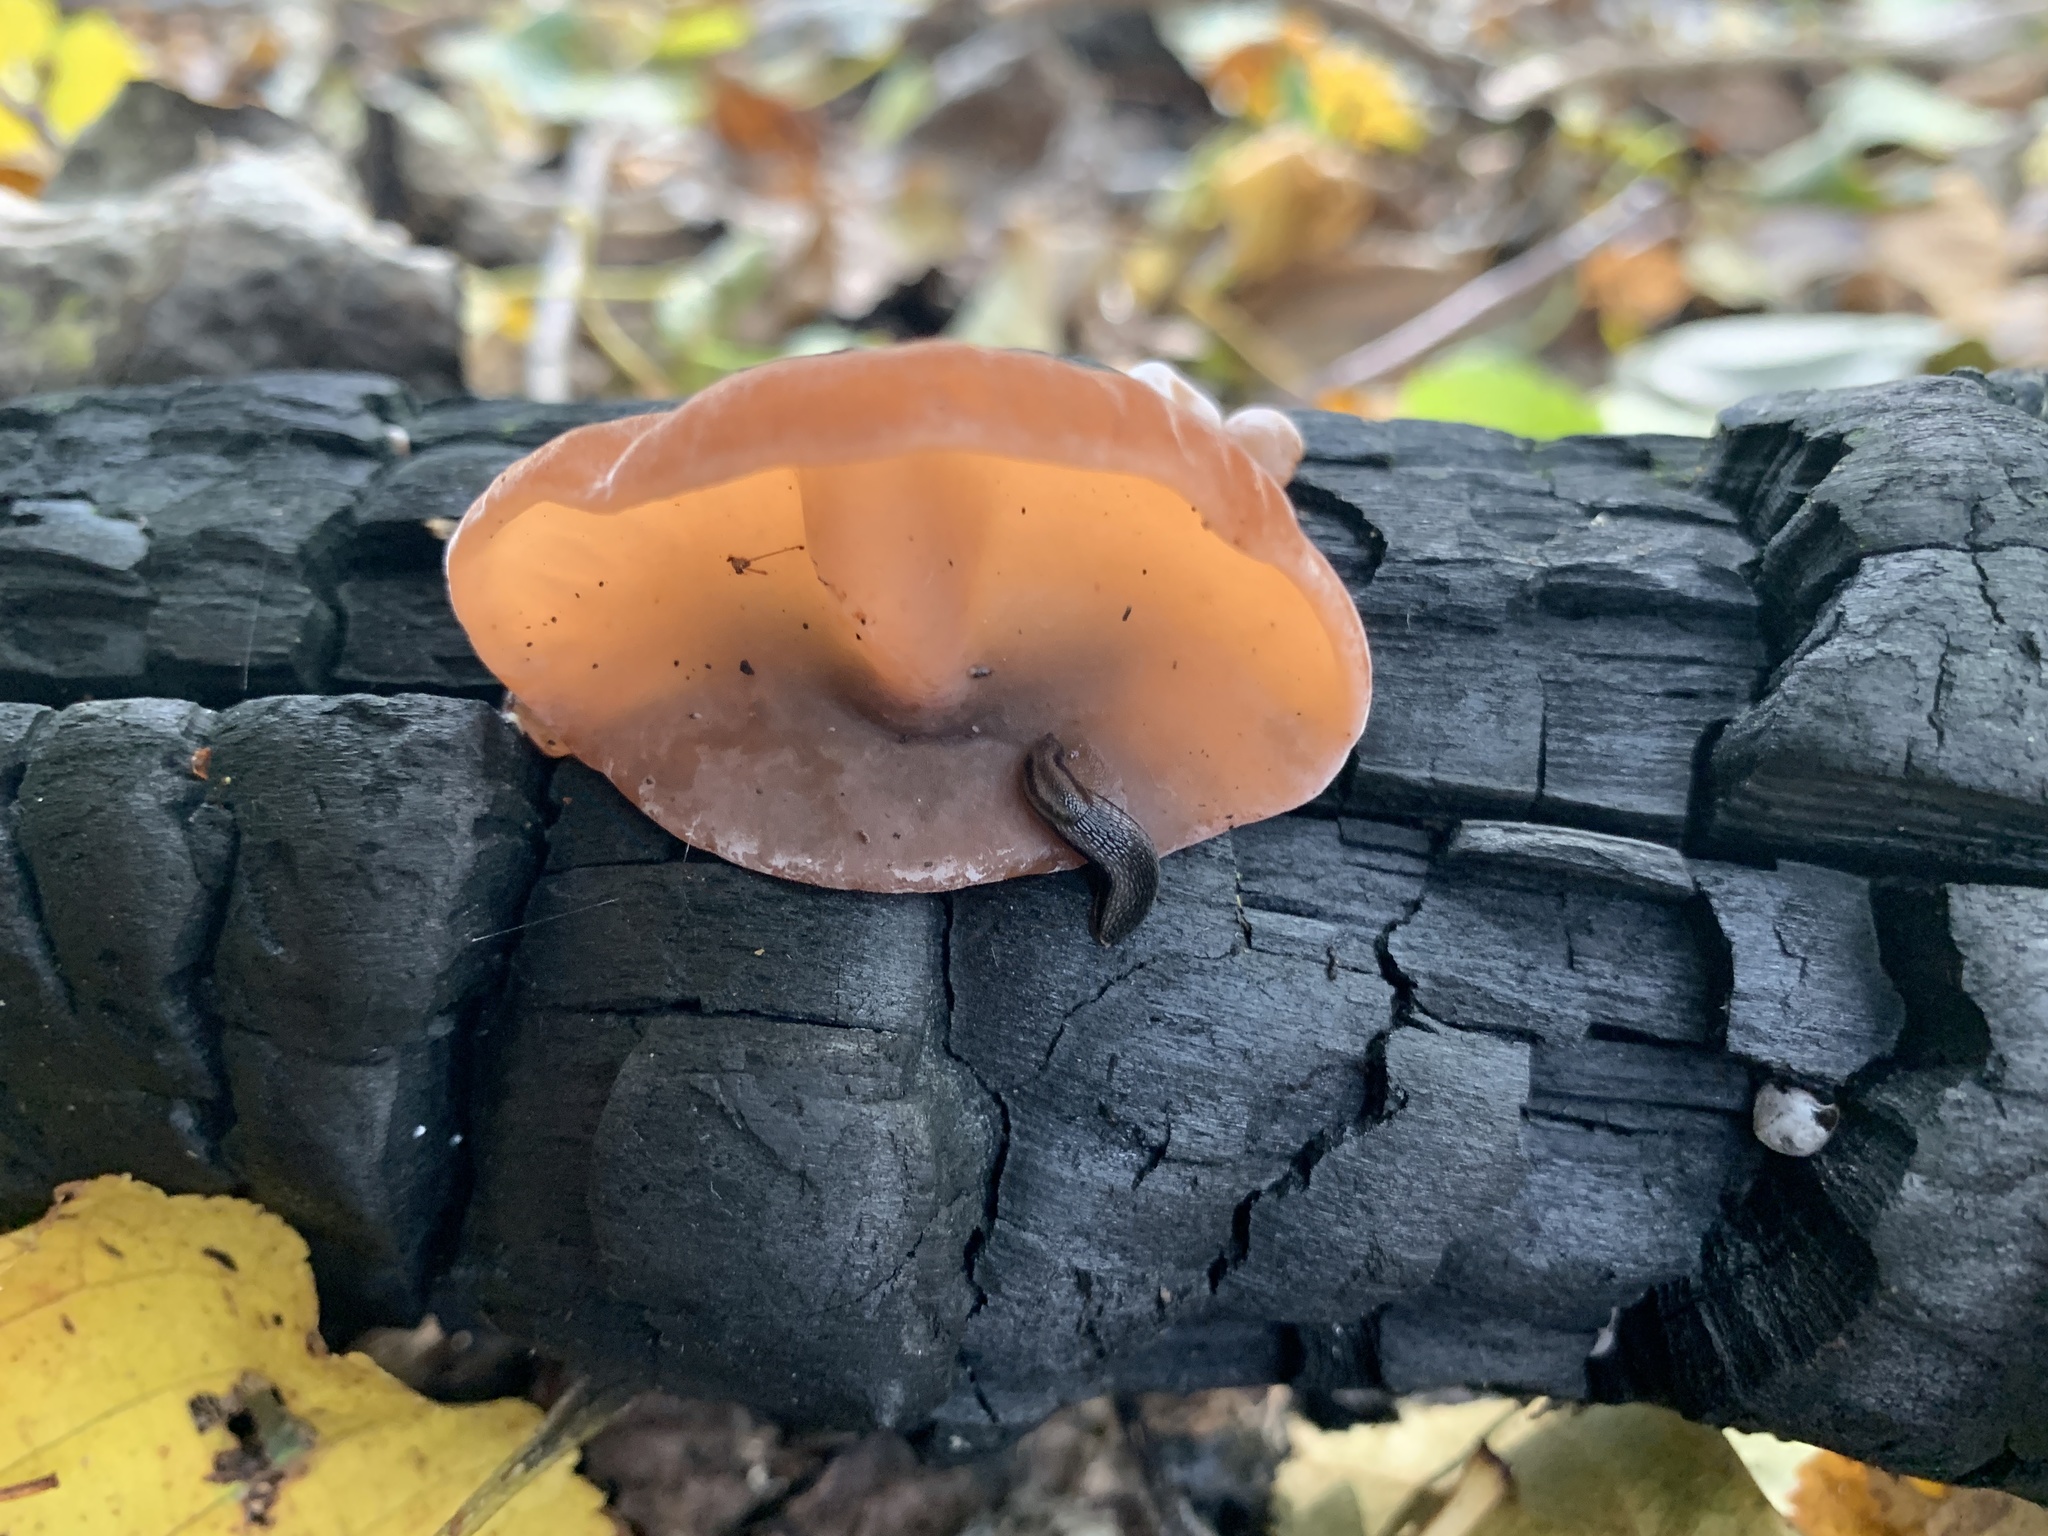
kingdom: Fungi
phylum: Basidiomycota
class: Agaricomycetes
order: Auriculariales
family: Auriculariaceae
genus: Auricularia
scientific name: Auricularia auricula-judae
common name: Jelly ear
